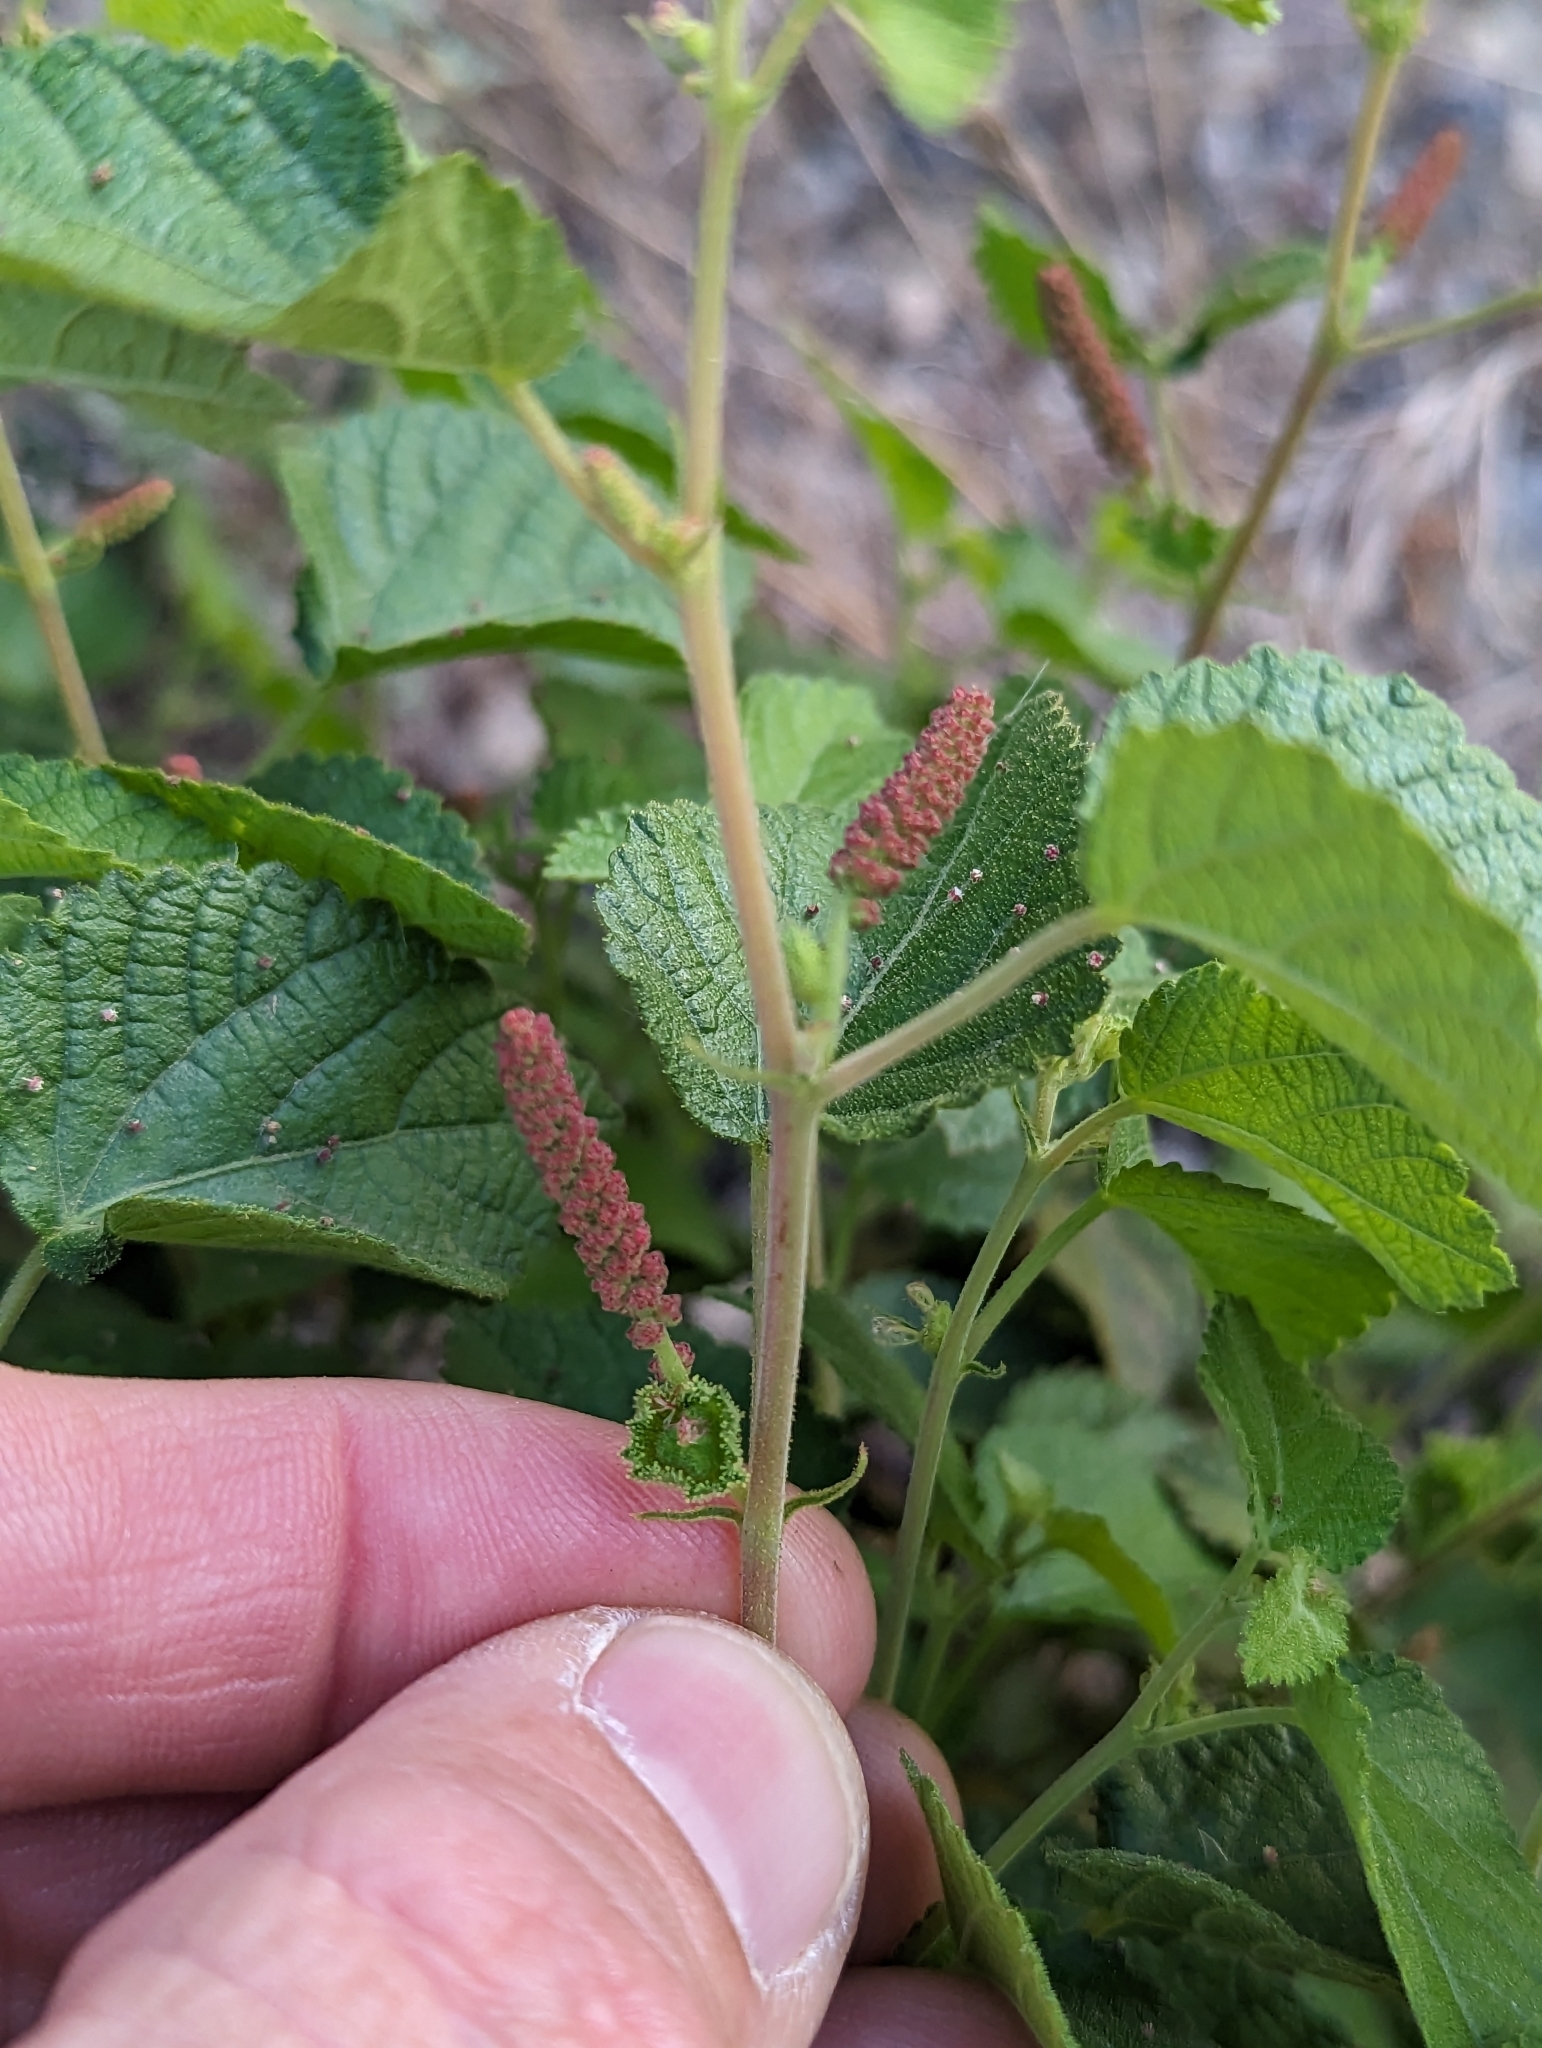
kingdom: Plantae
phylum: Tracheophyta
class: Magnoliopsida
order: Malpighiales
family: Euphorbiaceae
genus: Acalypha
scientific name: Acalypha californica
